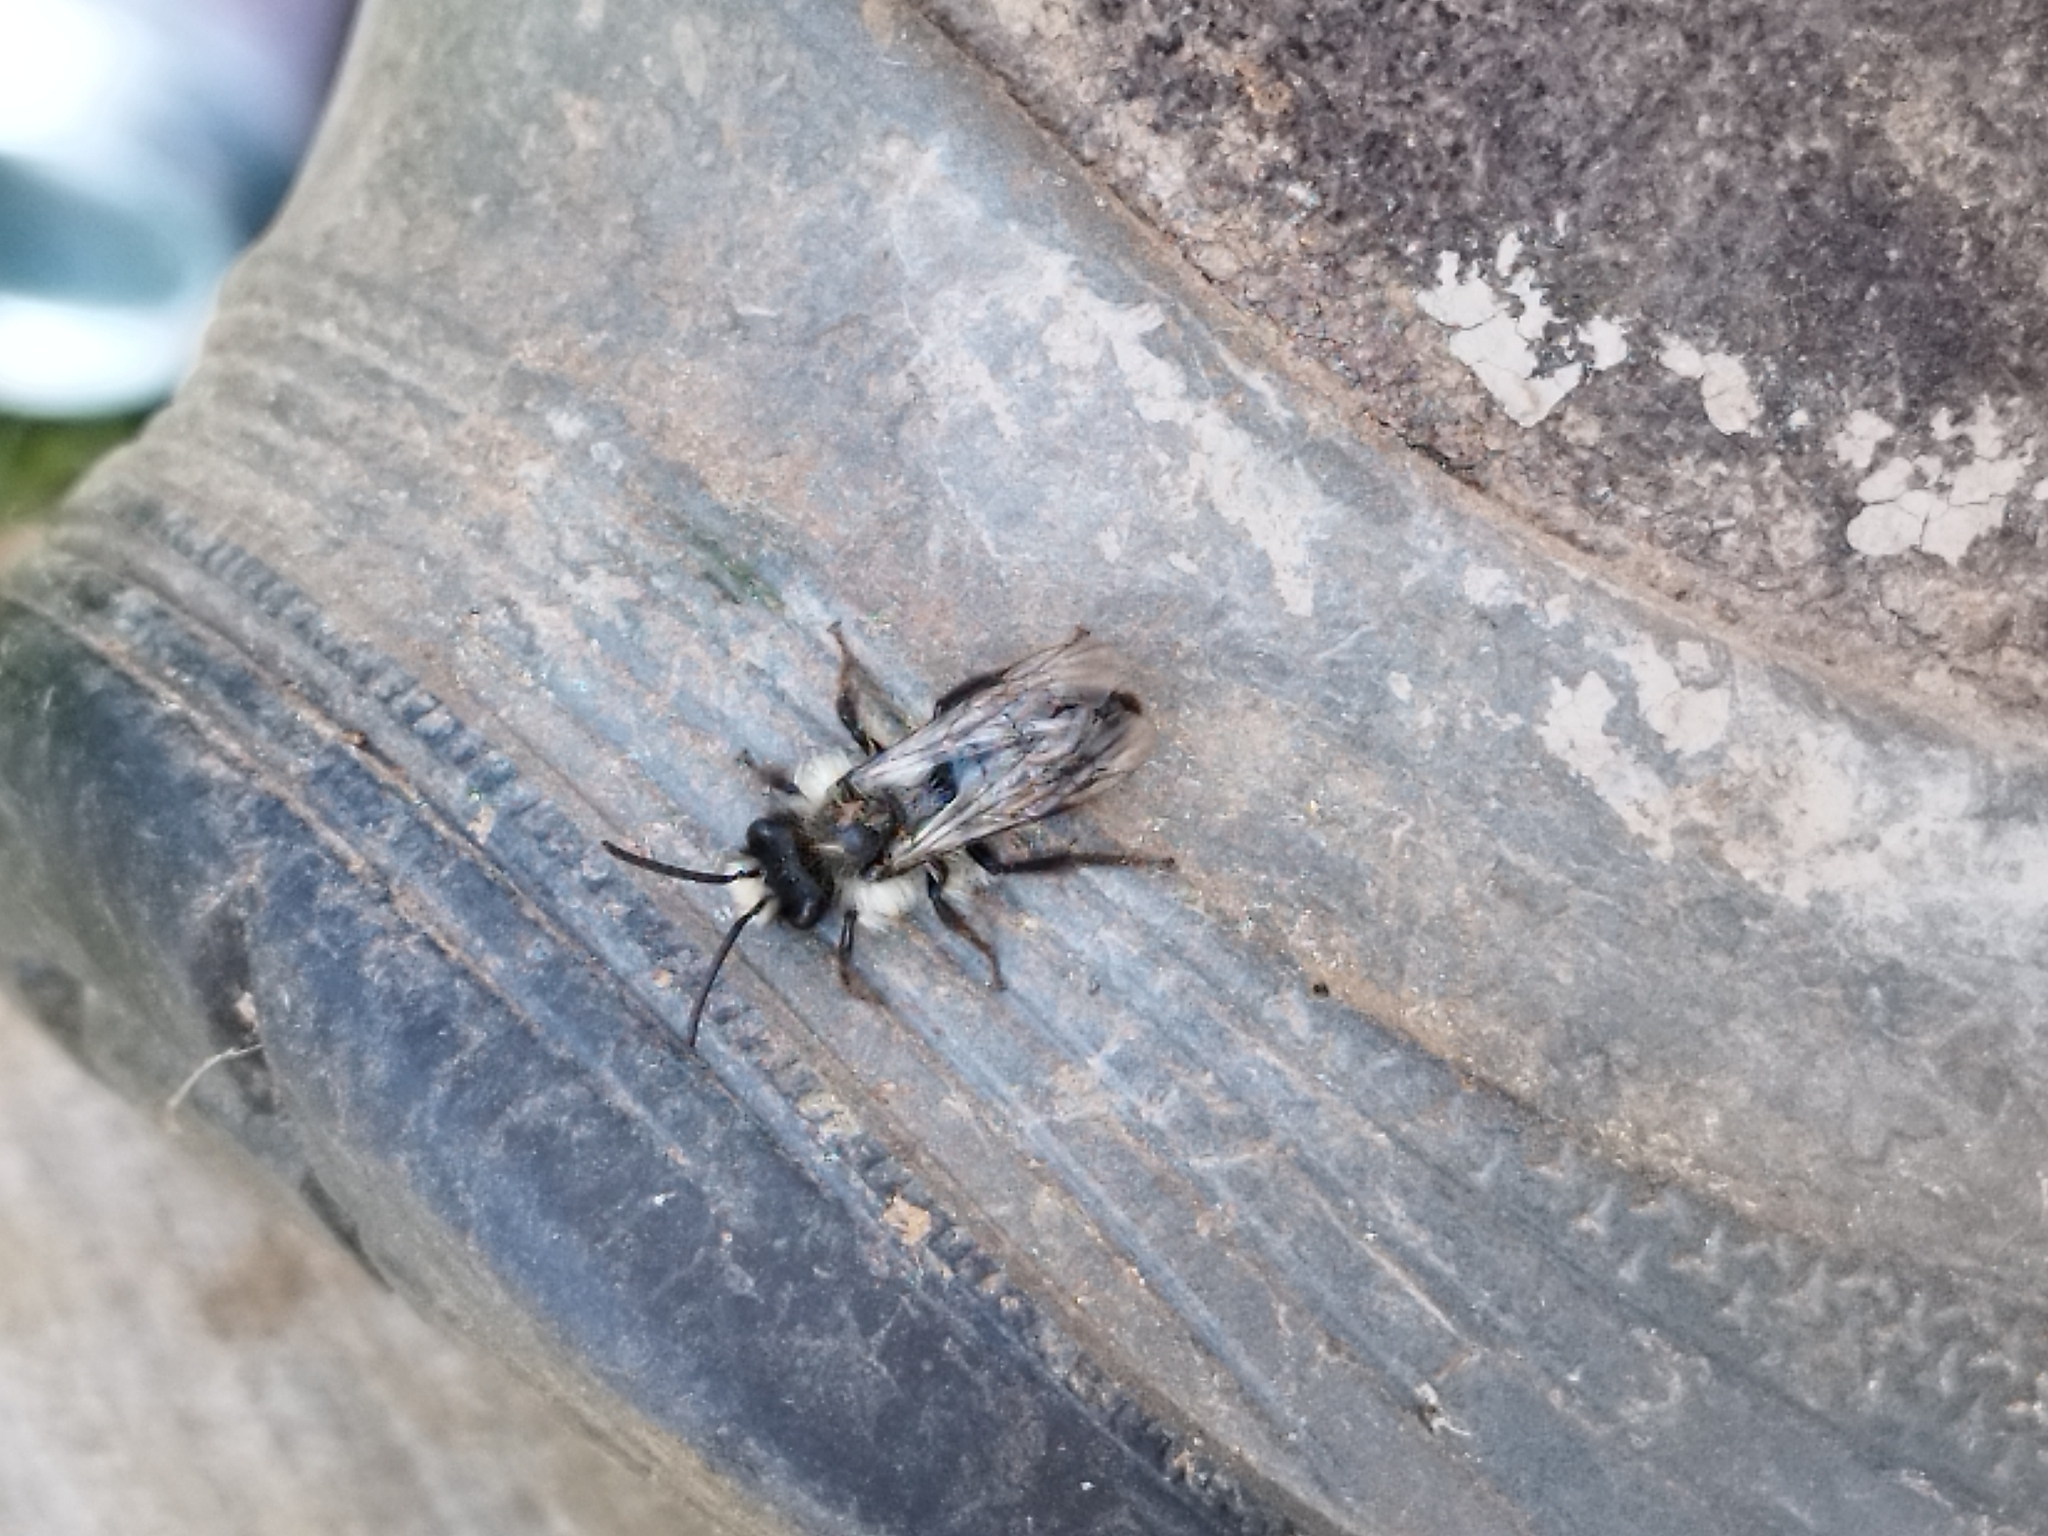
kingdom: Animalia
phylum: Arthropoda
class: Insecta
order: Hymenoptera
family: Andrenidae
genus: Andrena
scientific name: Andrena cineraria
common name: Ashy mining bee
